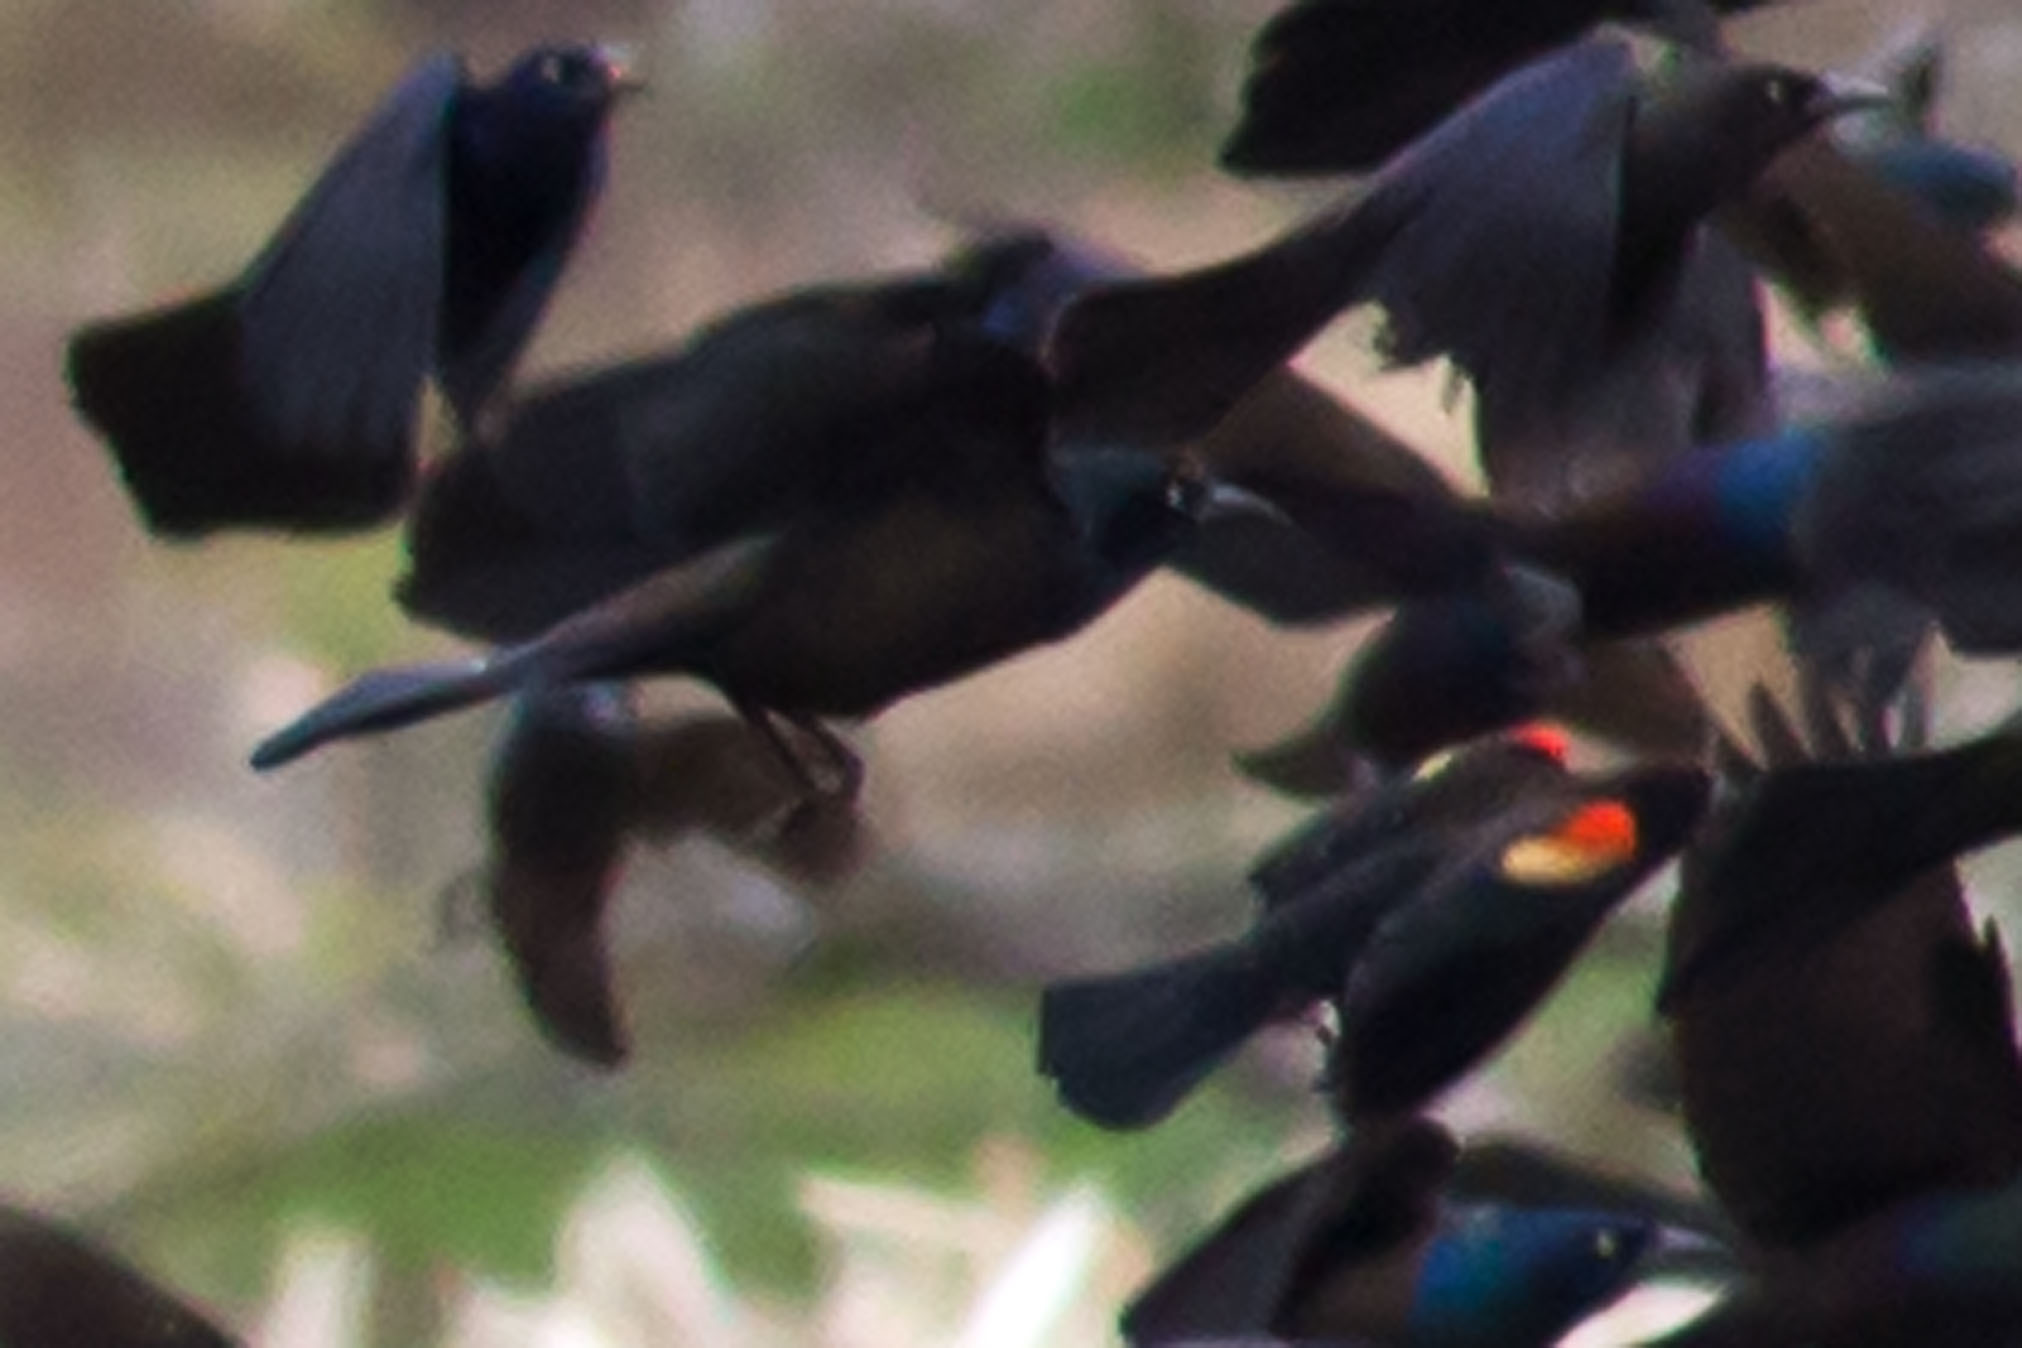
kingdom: Animalia
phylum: Chordata
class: Aves
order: Passeriformes
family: Icteridae
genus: Agelaius
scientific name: Agelaius phoeniceus
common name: Red-winged blackbird
